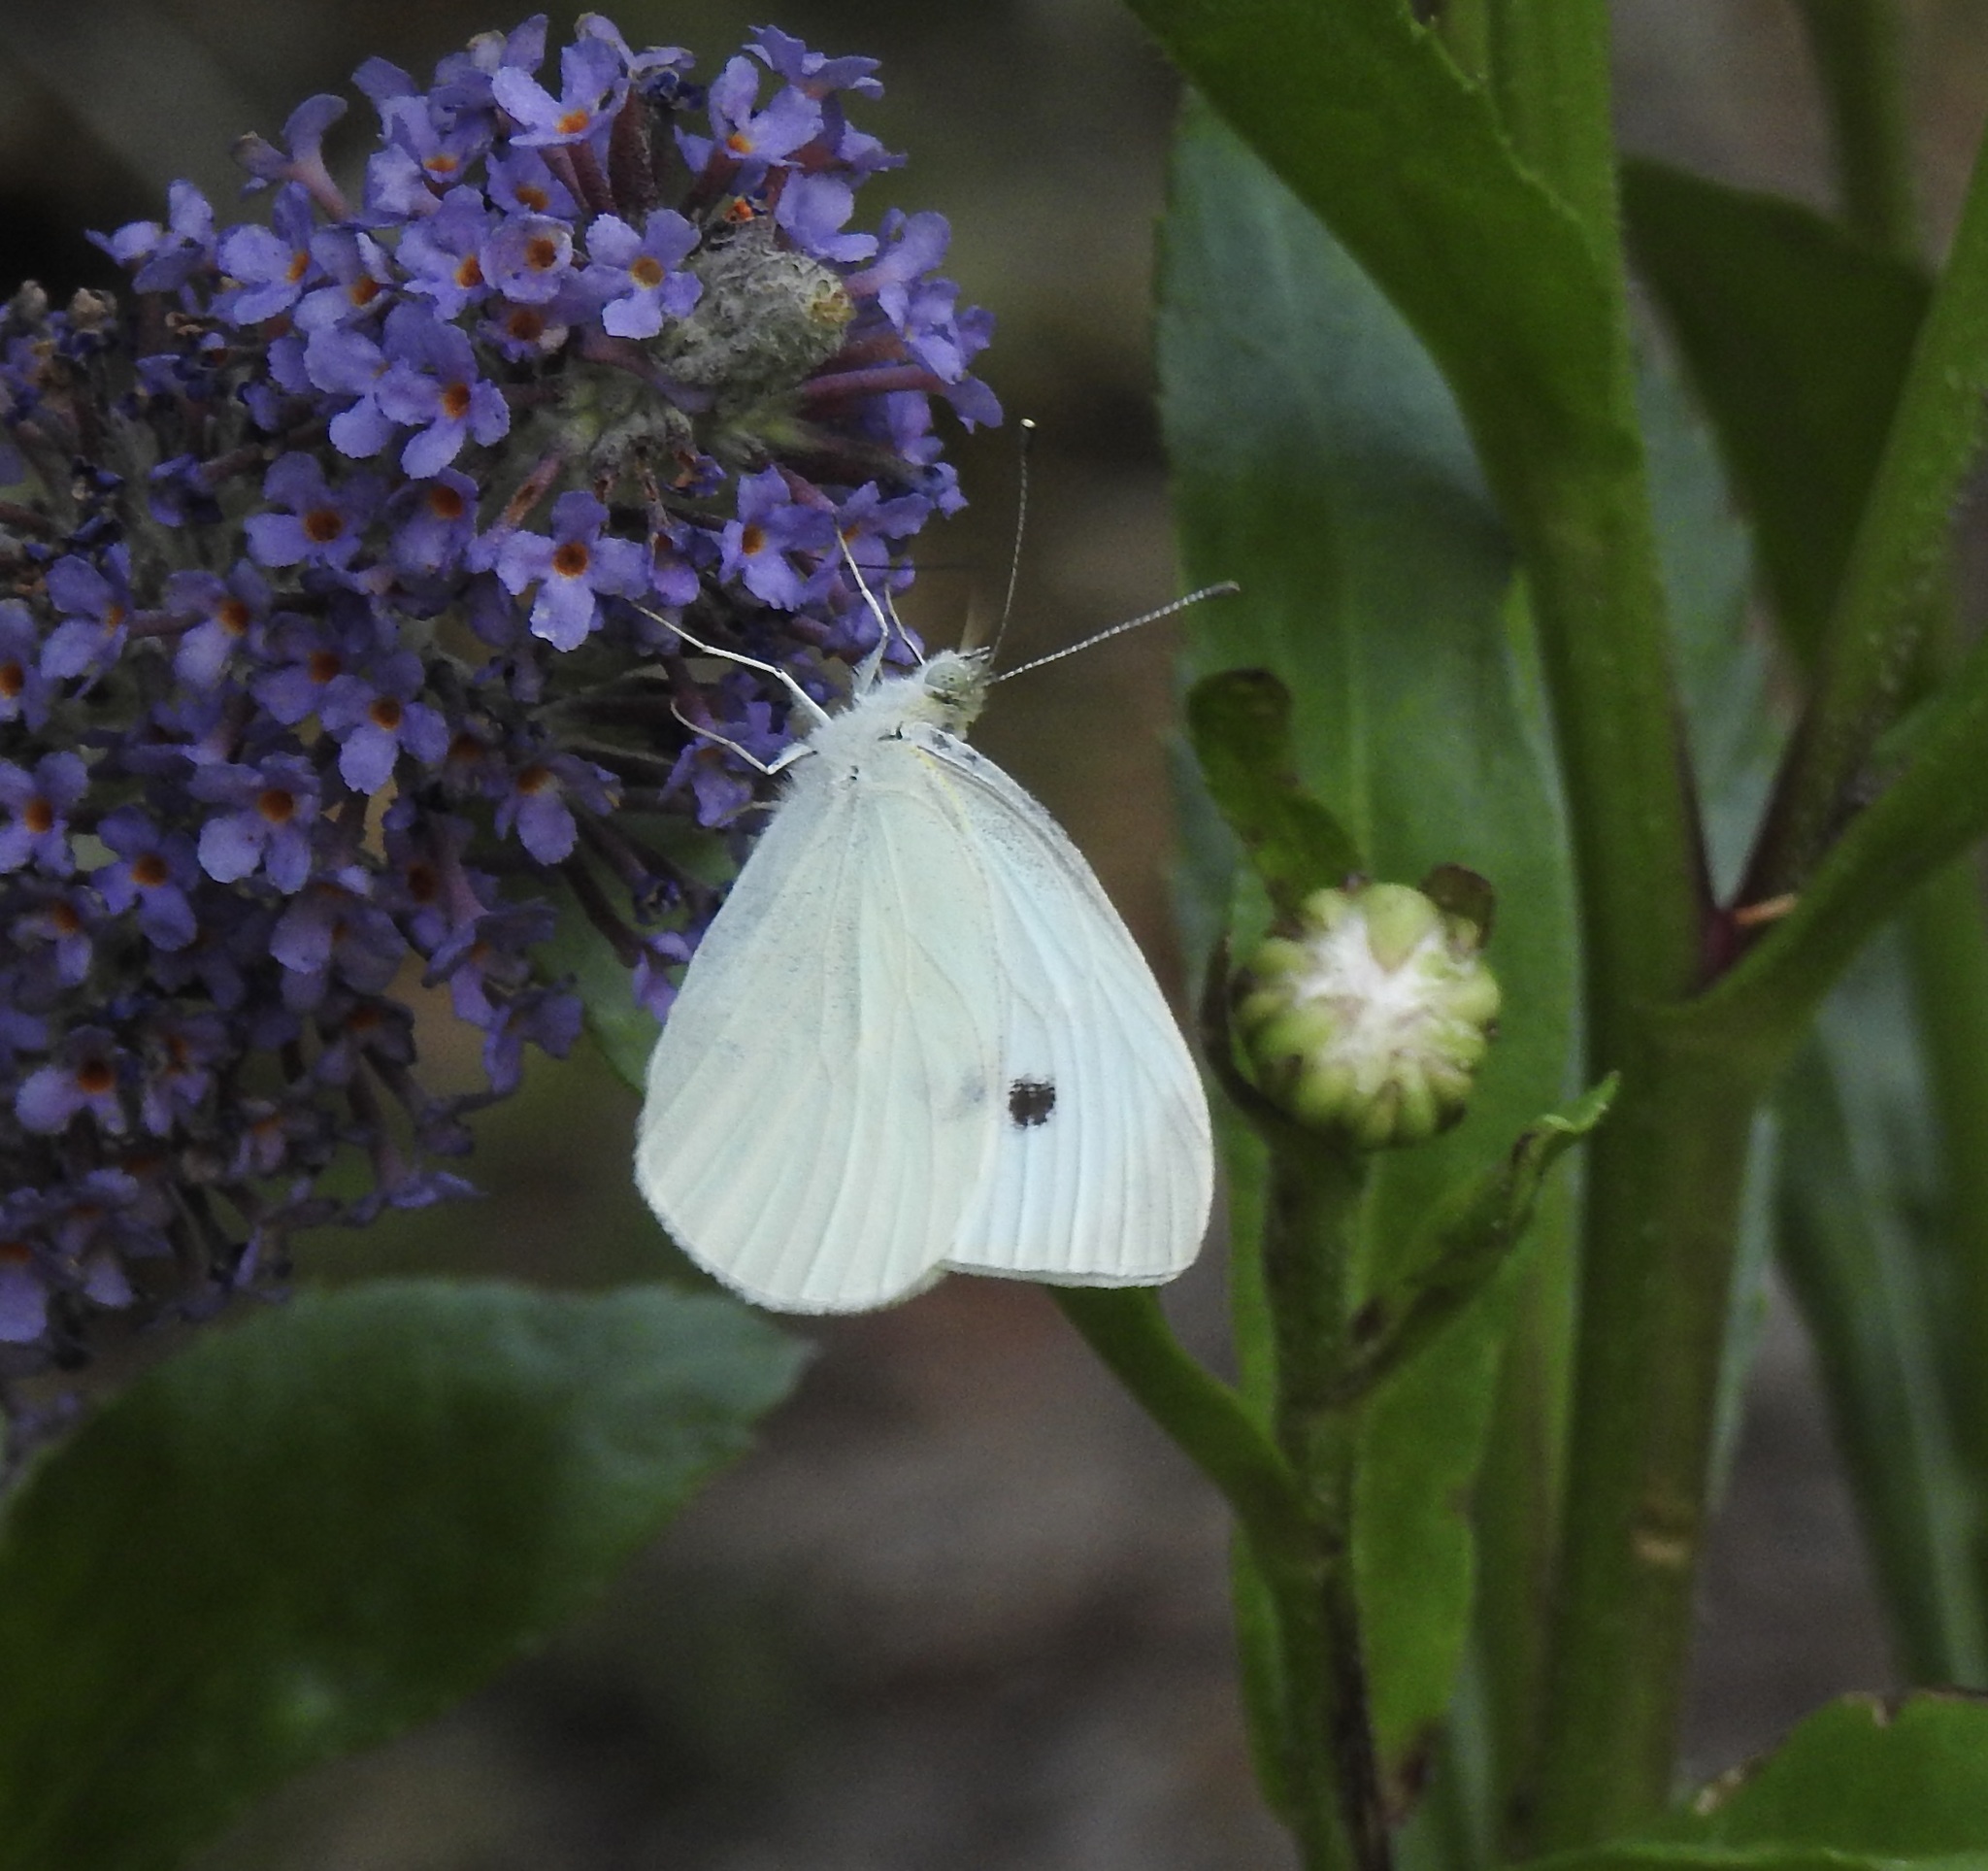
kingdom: Animalia
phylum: Arthropoda
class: Insecta
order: Lepidoptera
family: Pieridae
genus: Pieris
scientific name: Pieris rapae
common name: Small white
